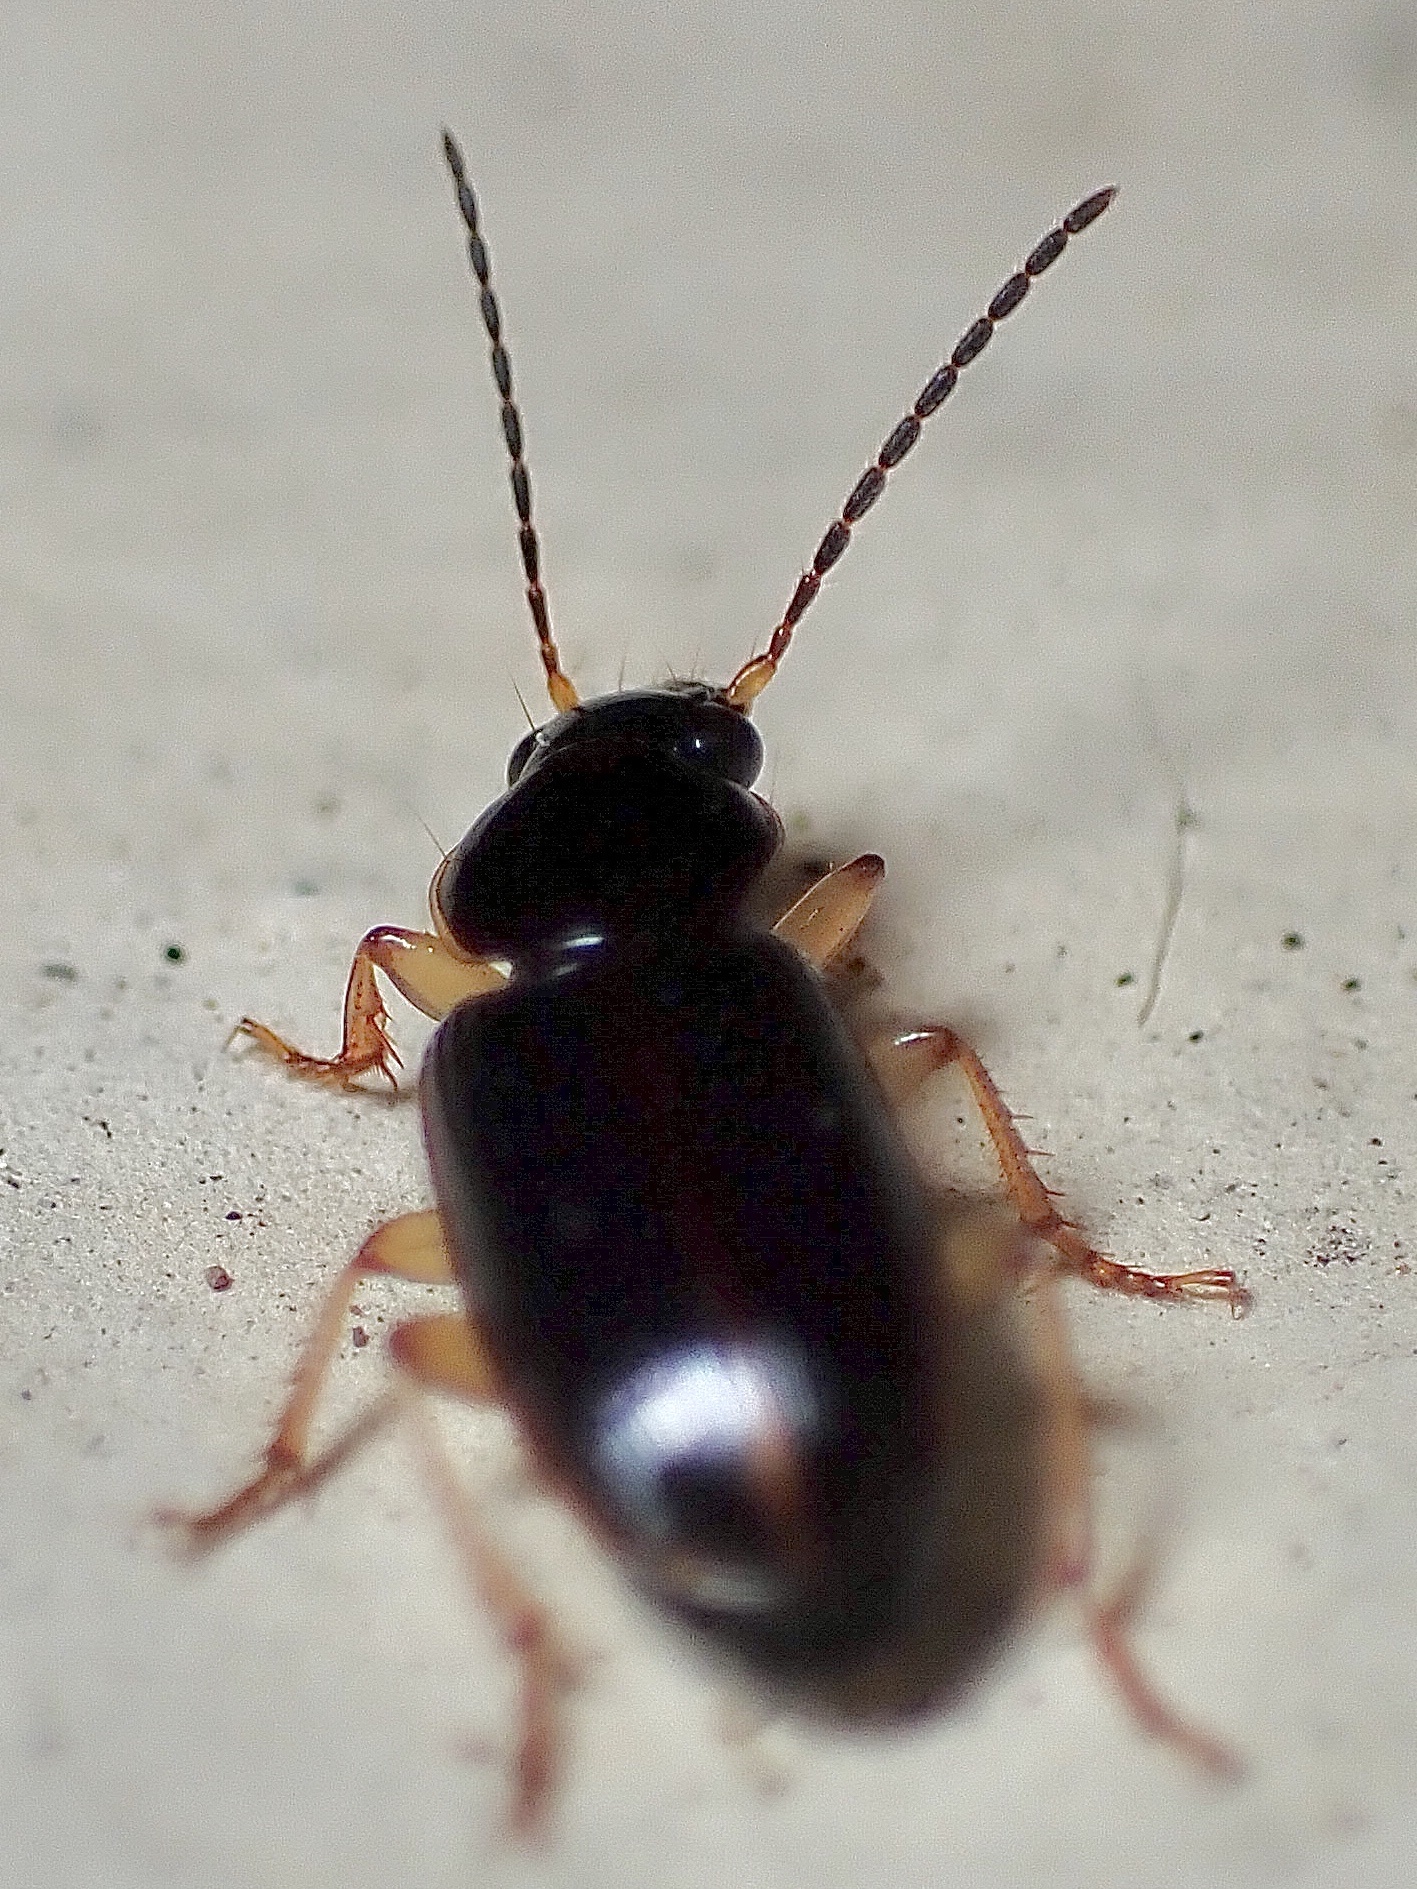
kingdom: Animalia
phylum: Arthropoda
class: Insecta
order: Coleoptera
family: Carabidae
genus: Stenolophus
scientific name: Stenolophus ochropezus
